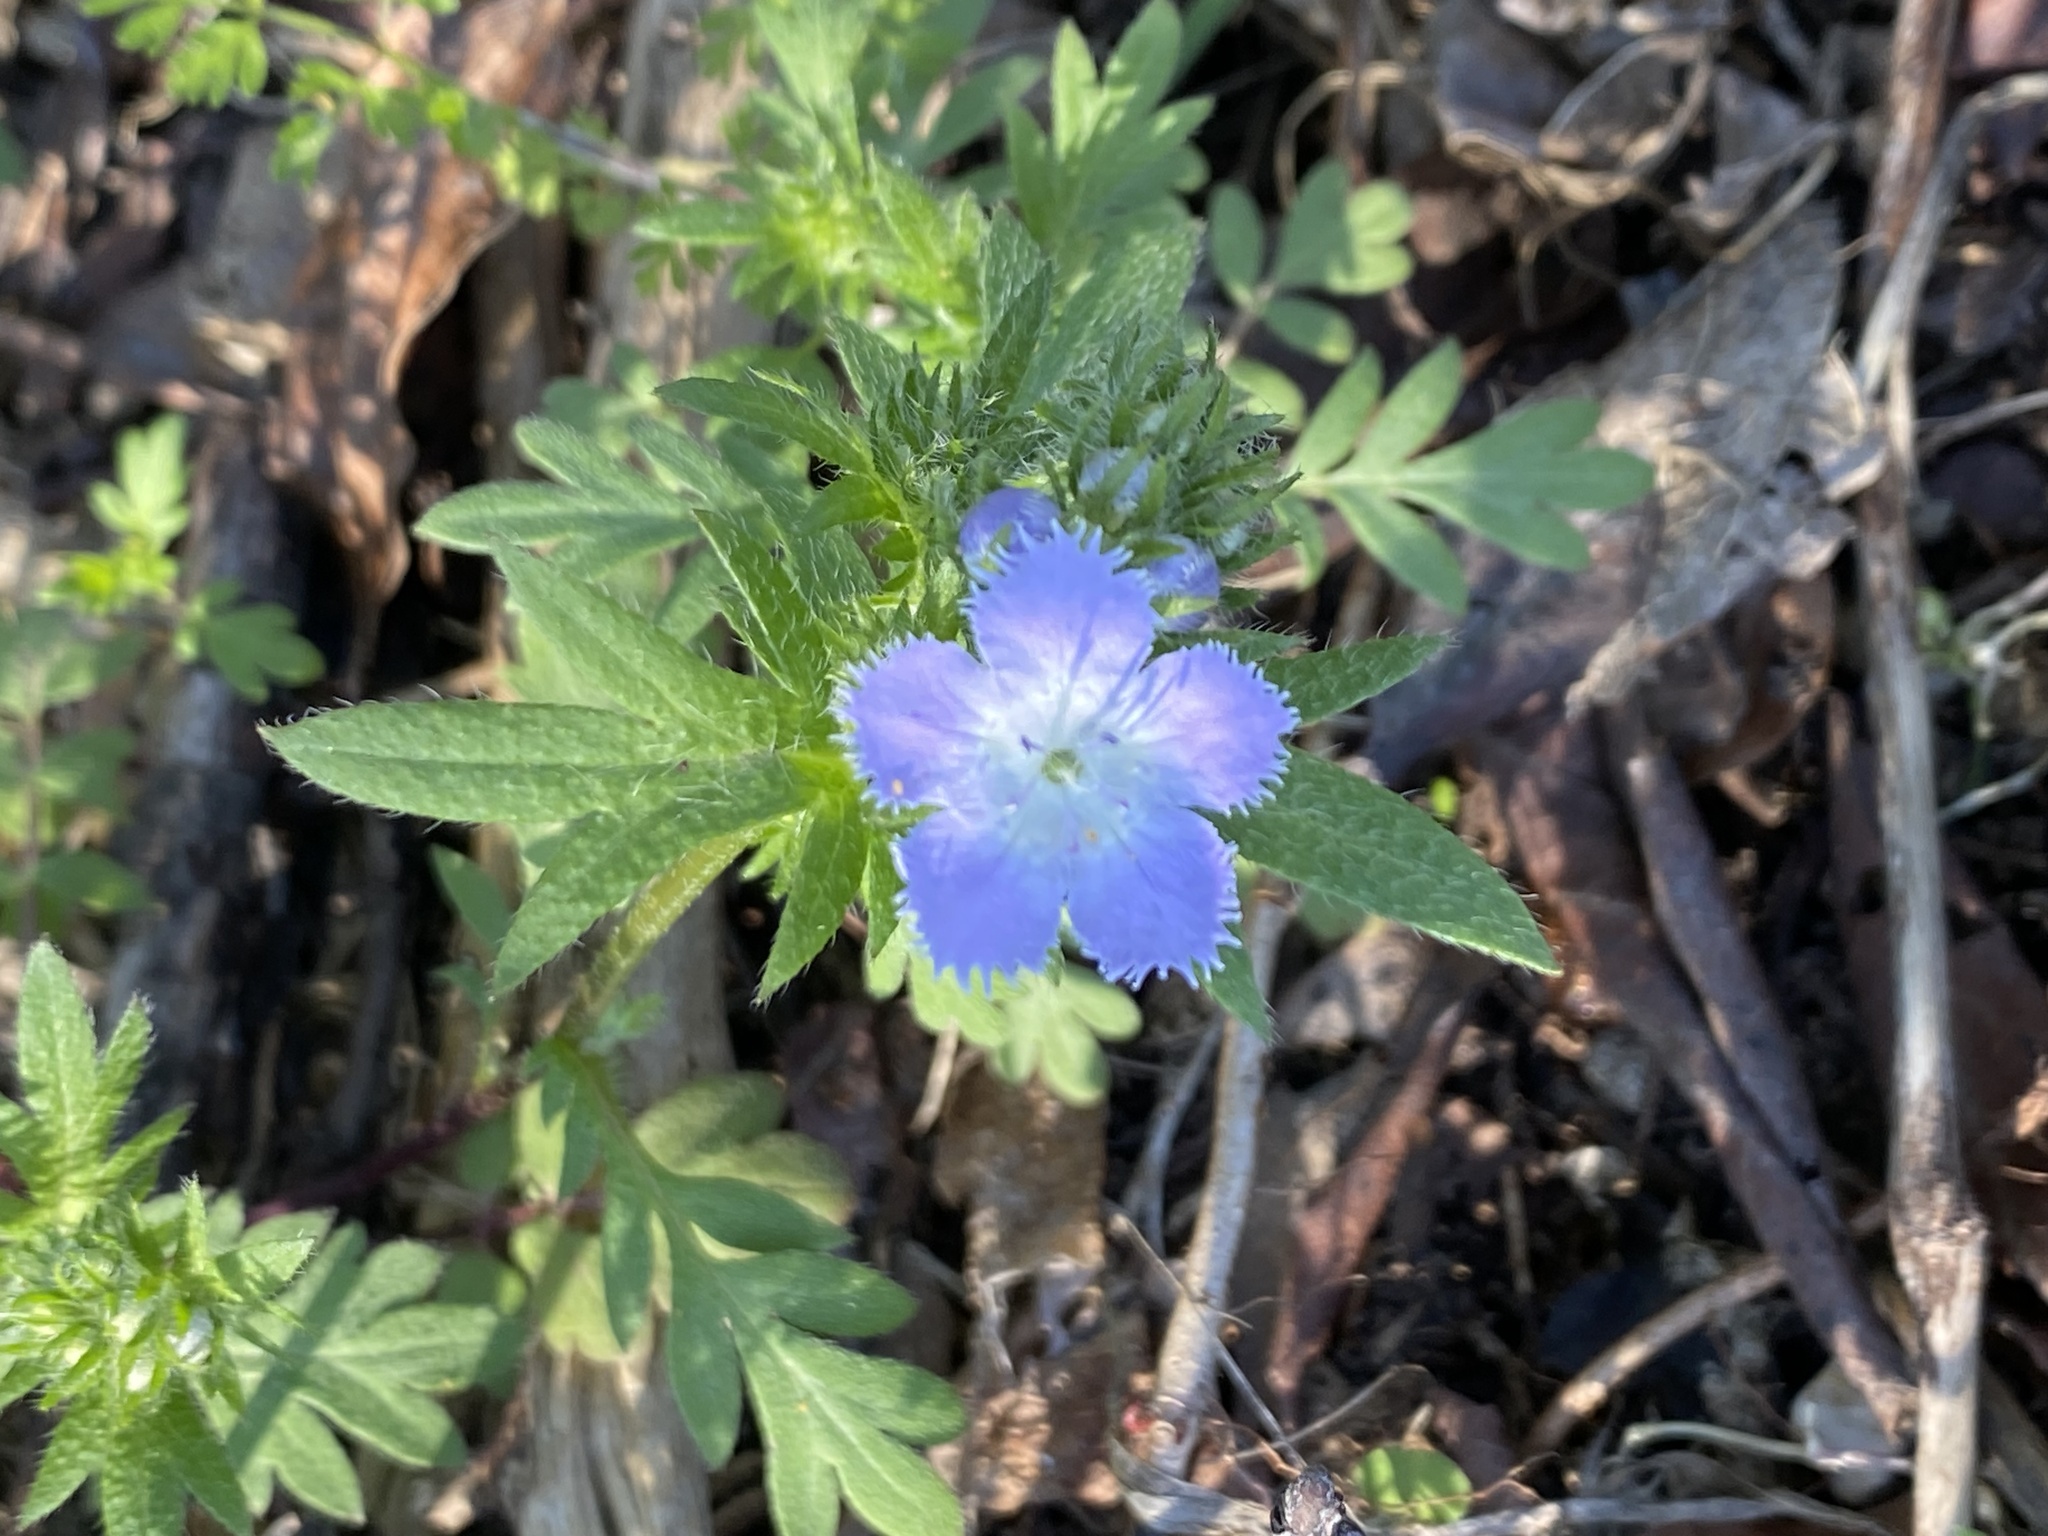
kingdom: Plantae
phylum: Tracheophyta
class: Magnoliopsida
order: Boraginales
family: Hydrophyllaceae
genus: Phacelia
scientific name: Phacelia purshii
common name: Miami-mist
